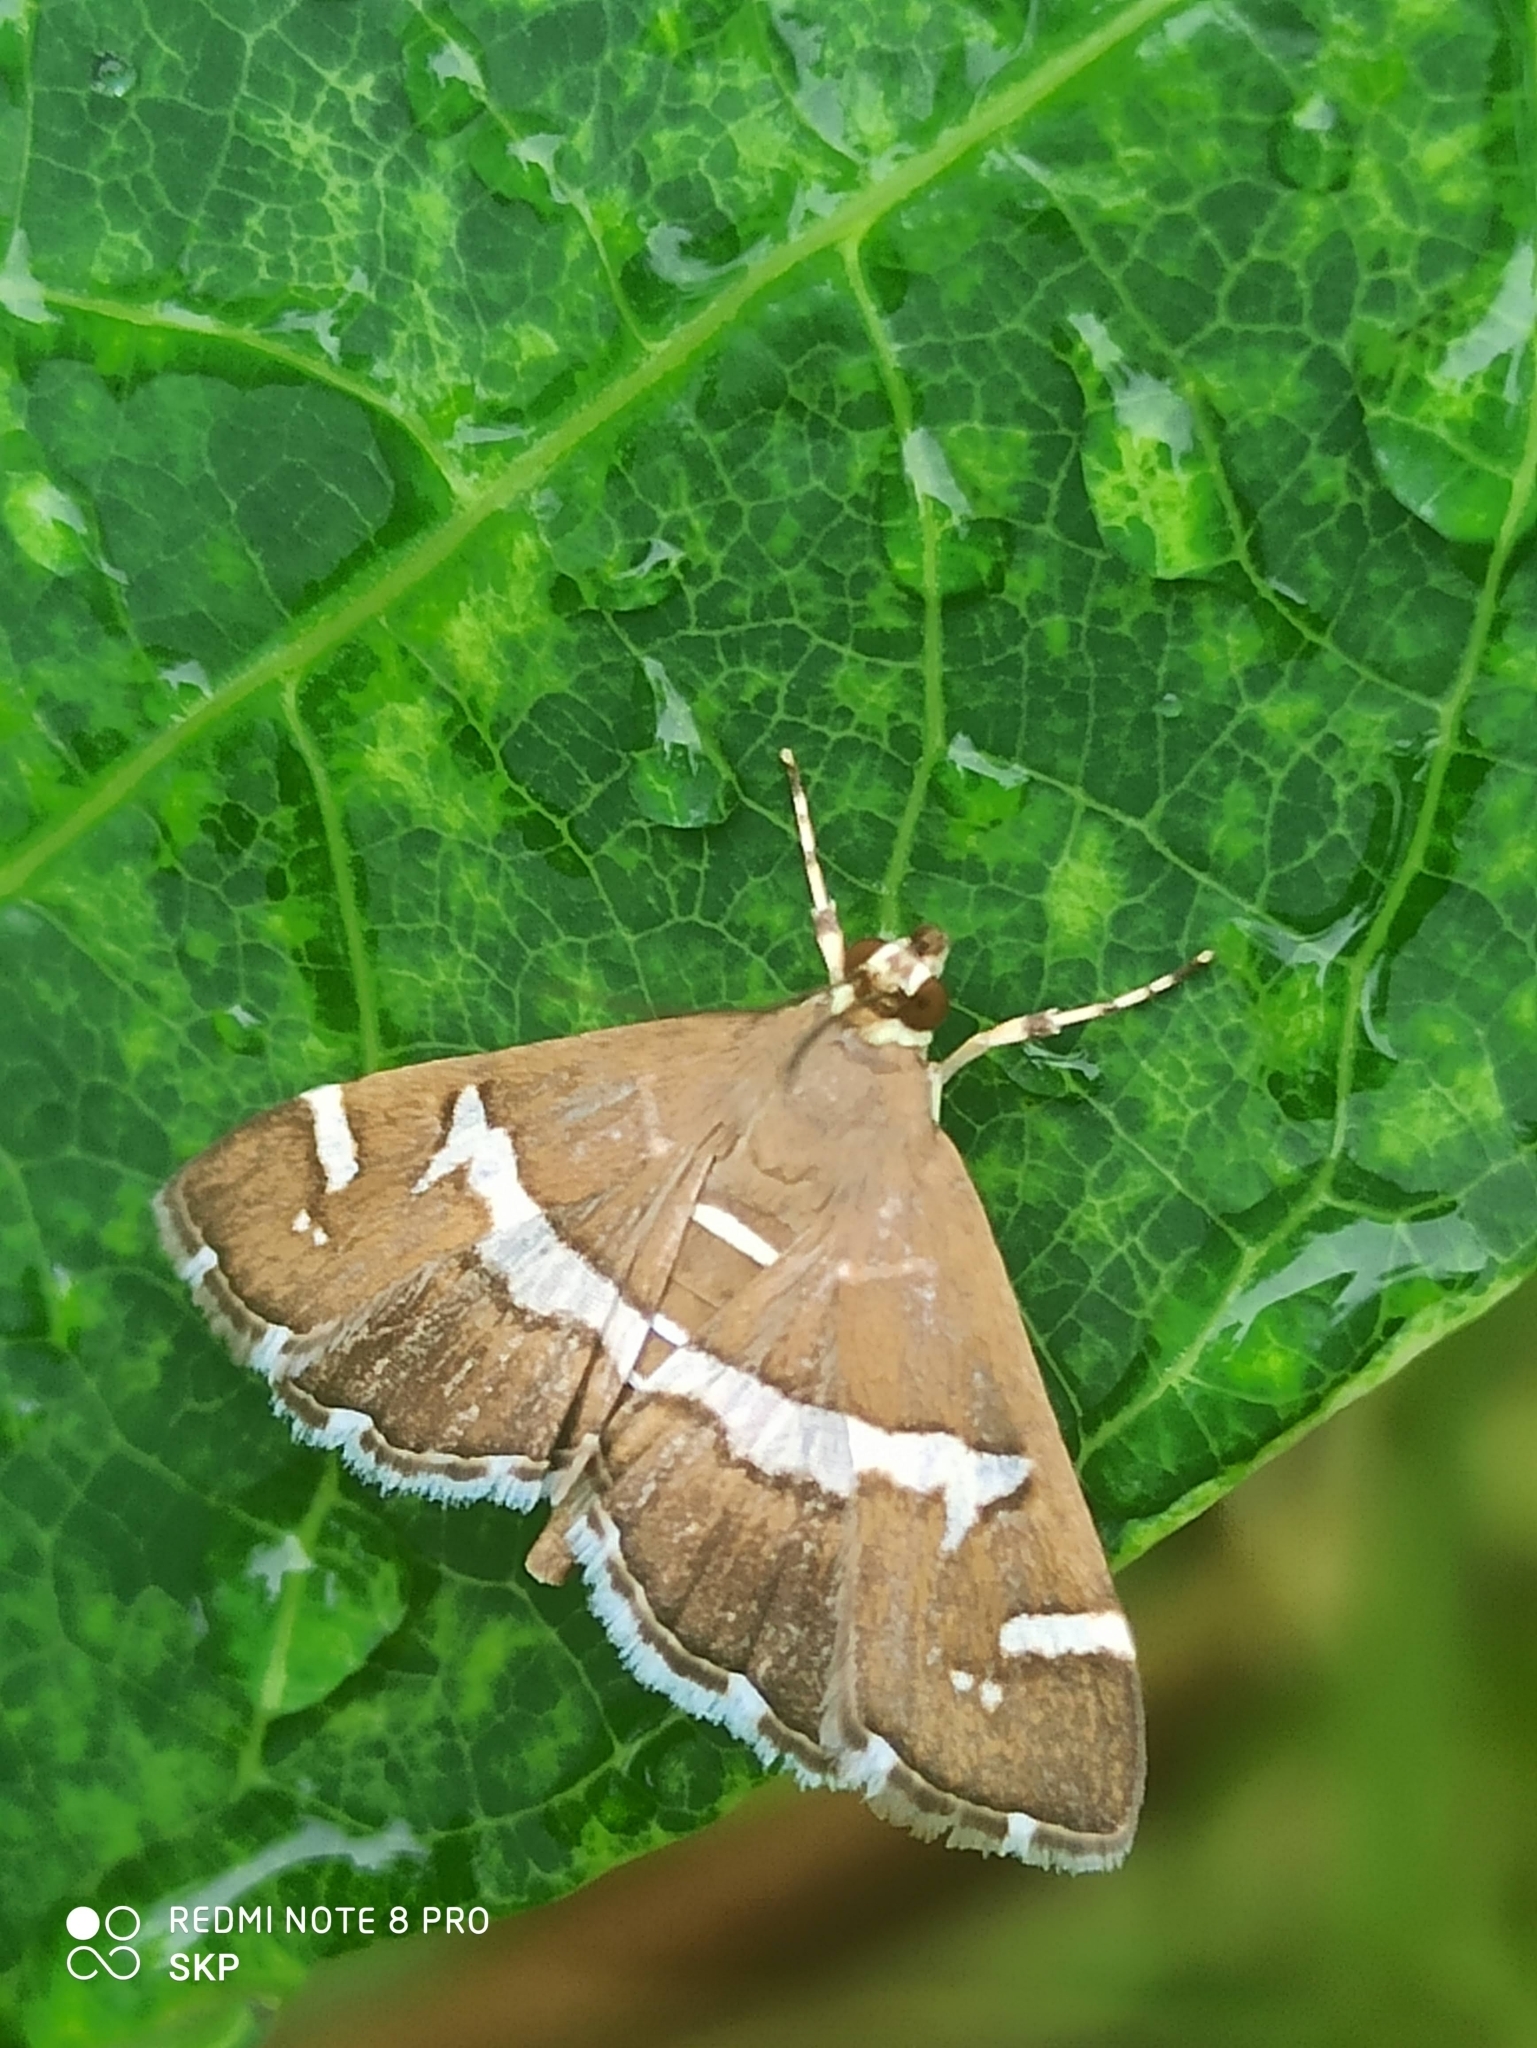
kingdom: Animalia
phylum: Arthropoda
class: Insecta
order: Lepidoptera
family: Crambidae
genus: Spoladea
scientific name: Spoladea recurvalis
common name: Beet webworm moth
